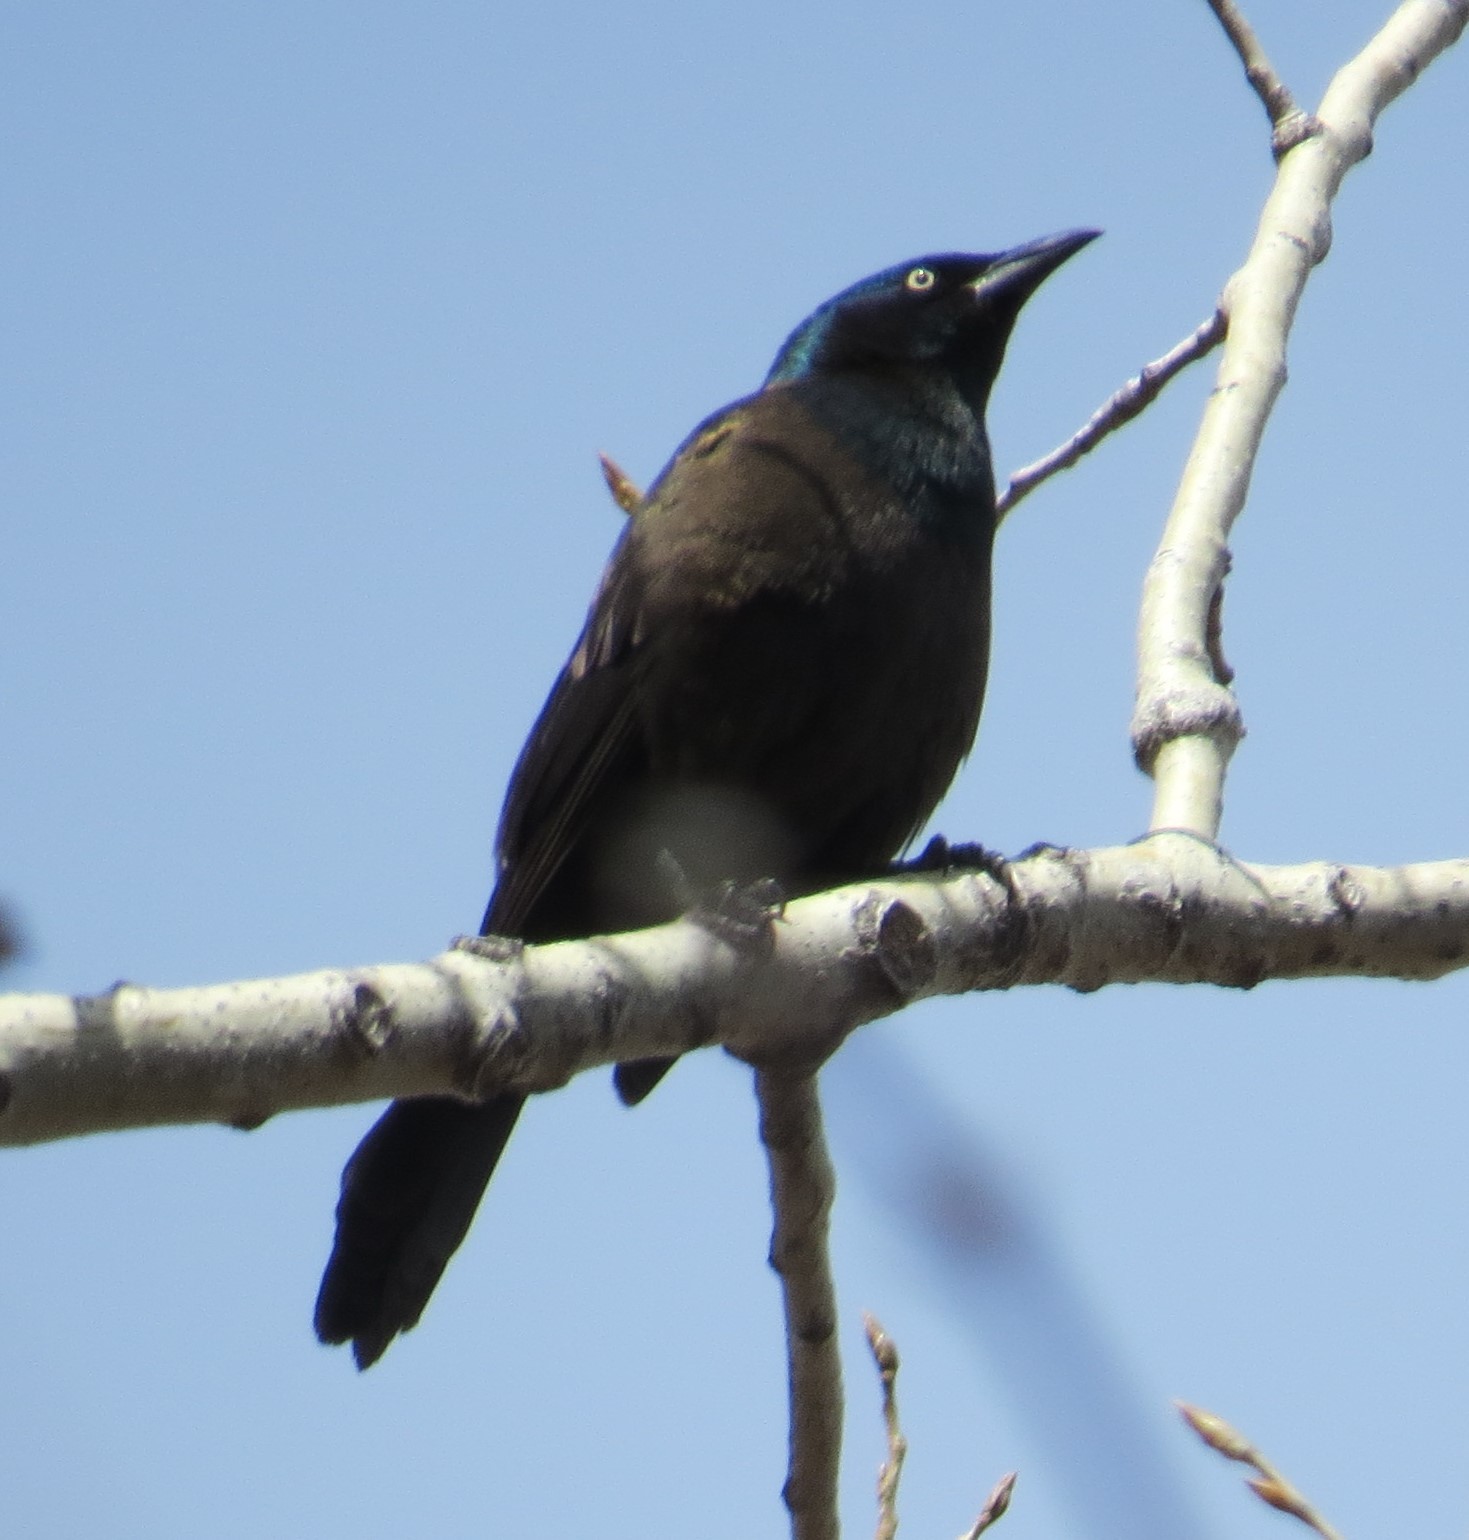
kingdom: Animalia
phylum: Chordata
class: Aves
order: Passeriformes
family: Icteridae
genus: Quiscalus
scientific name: Quiscalus quiscula
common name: Common grackle
